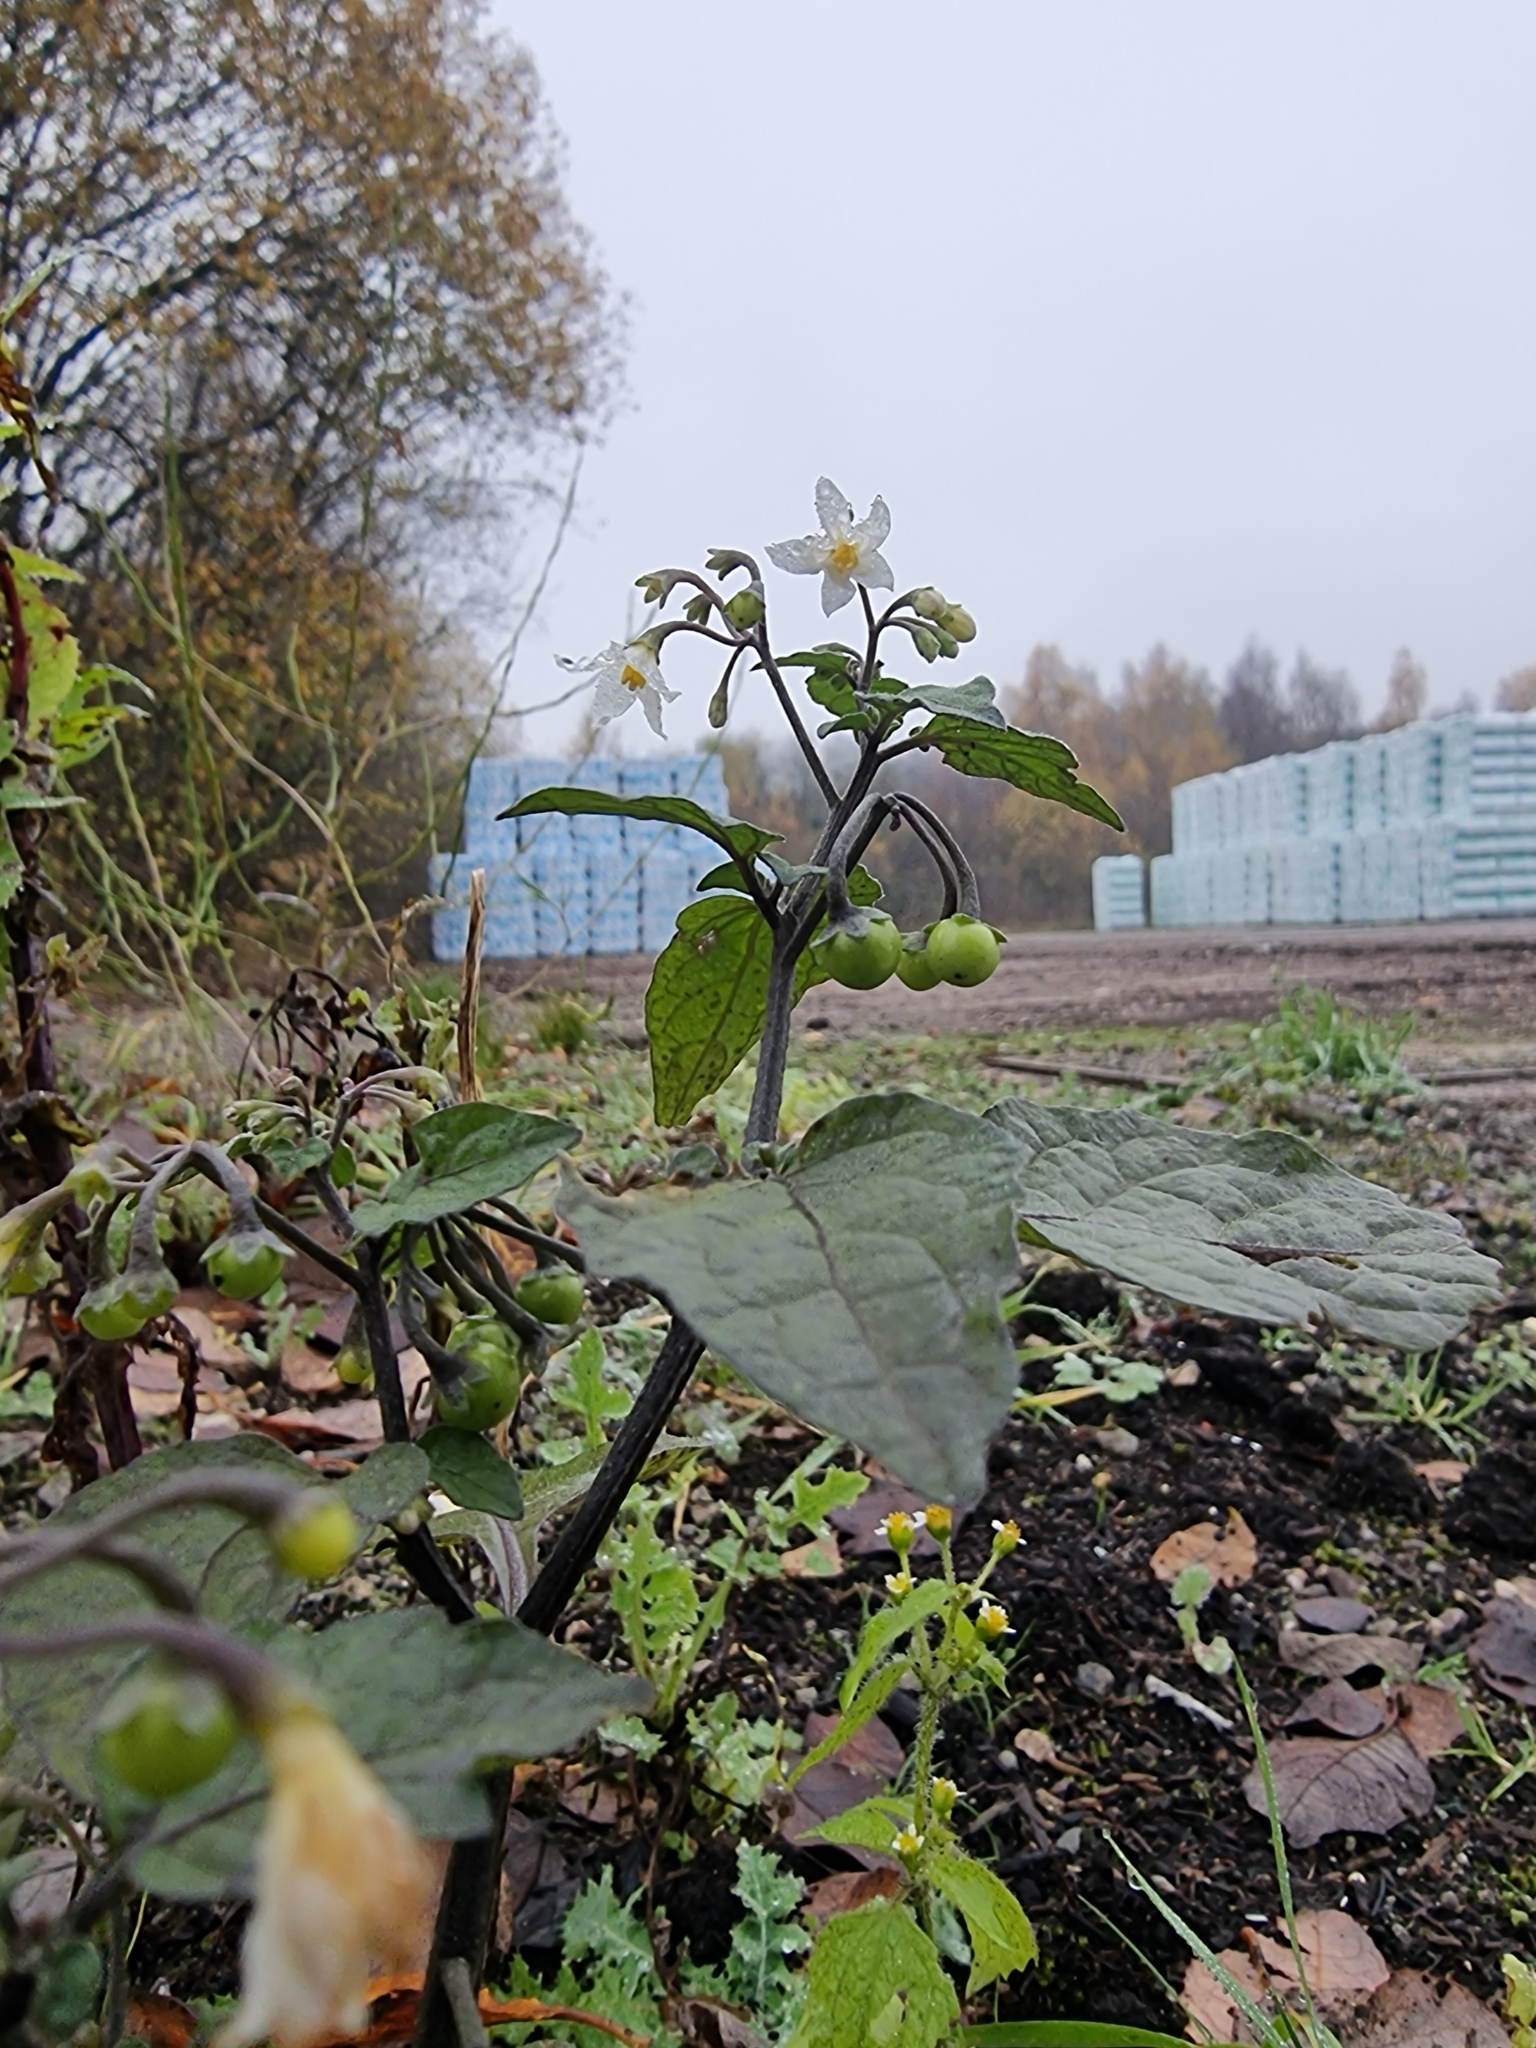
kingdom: Plantae
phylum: Tracheophyta
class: Magnoliopsida
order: Solanales
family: Solanaceae
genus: Solanum
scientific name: Solanum nigrum
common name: Black nightshade
